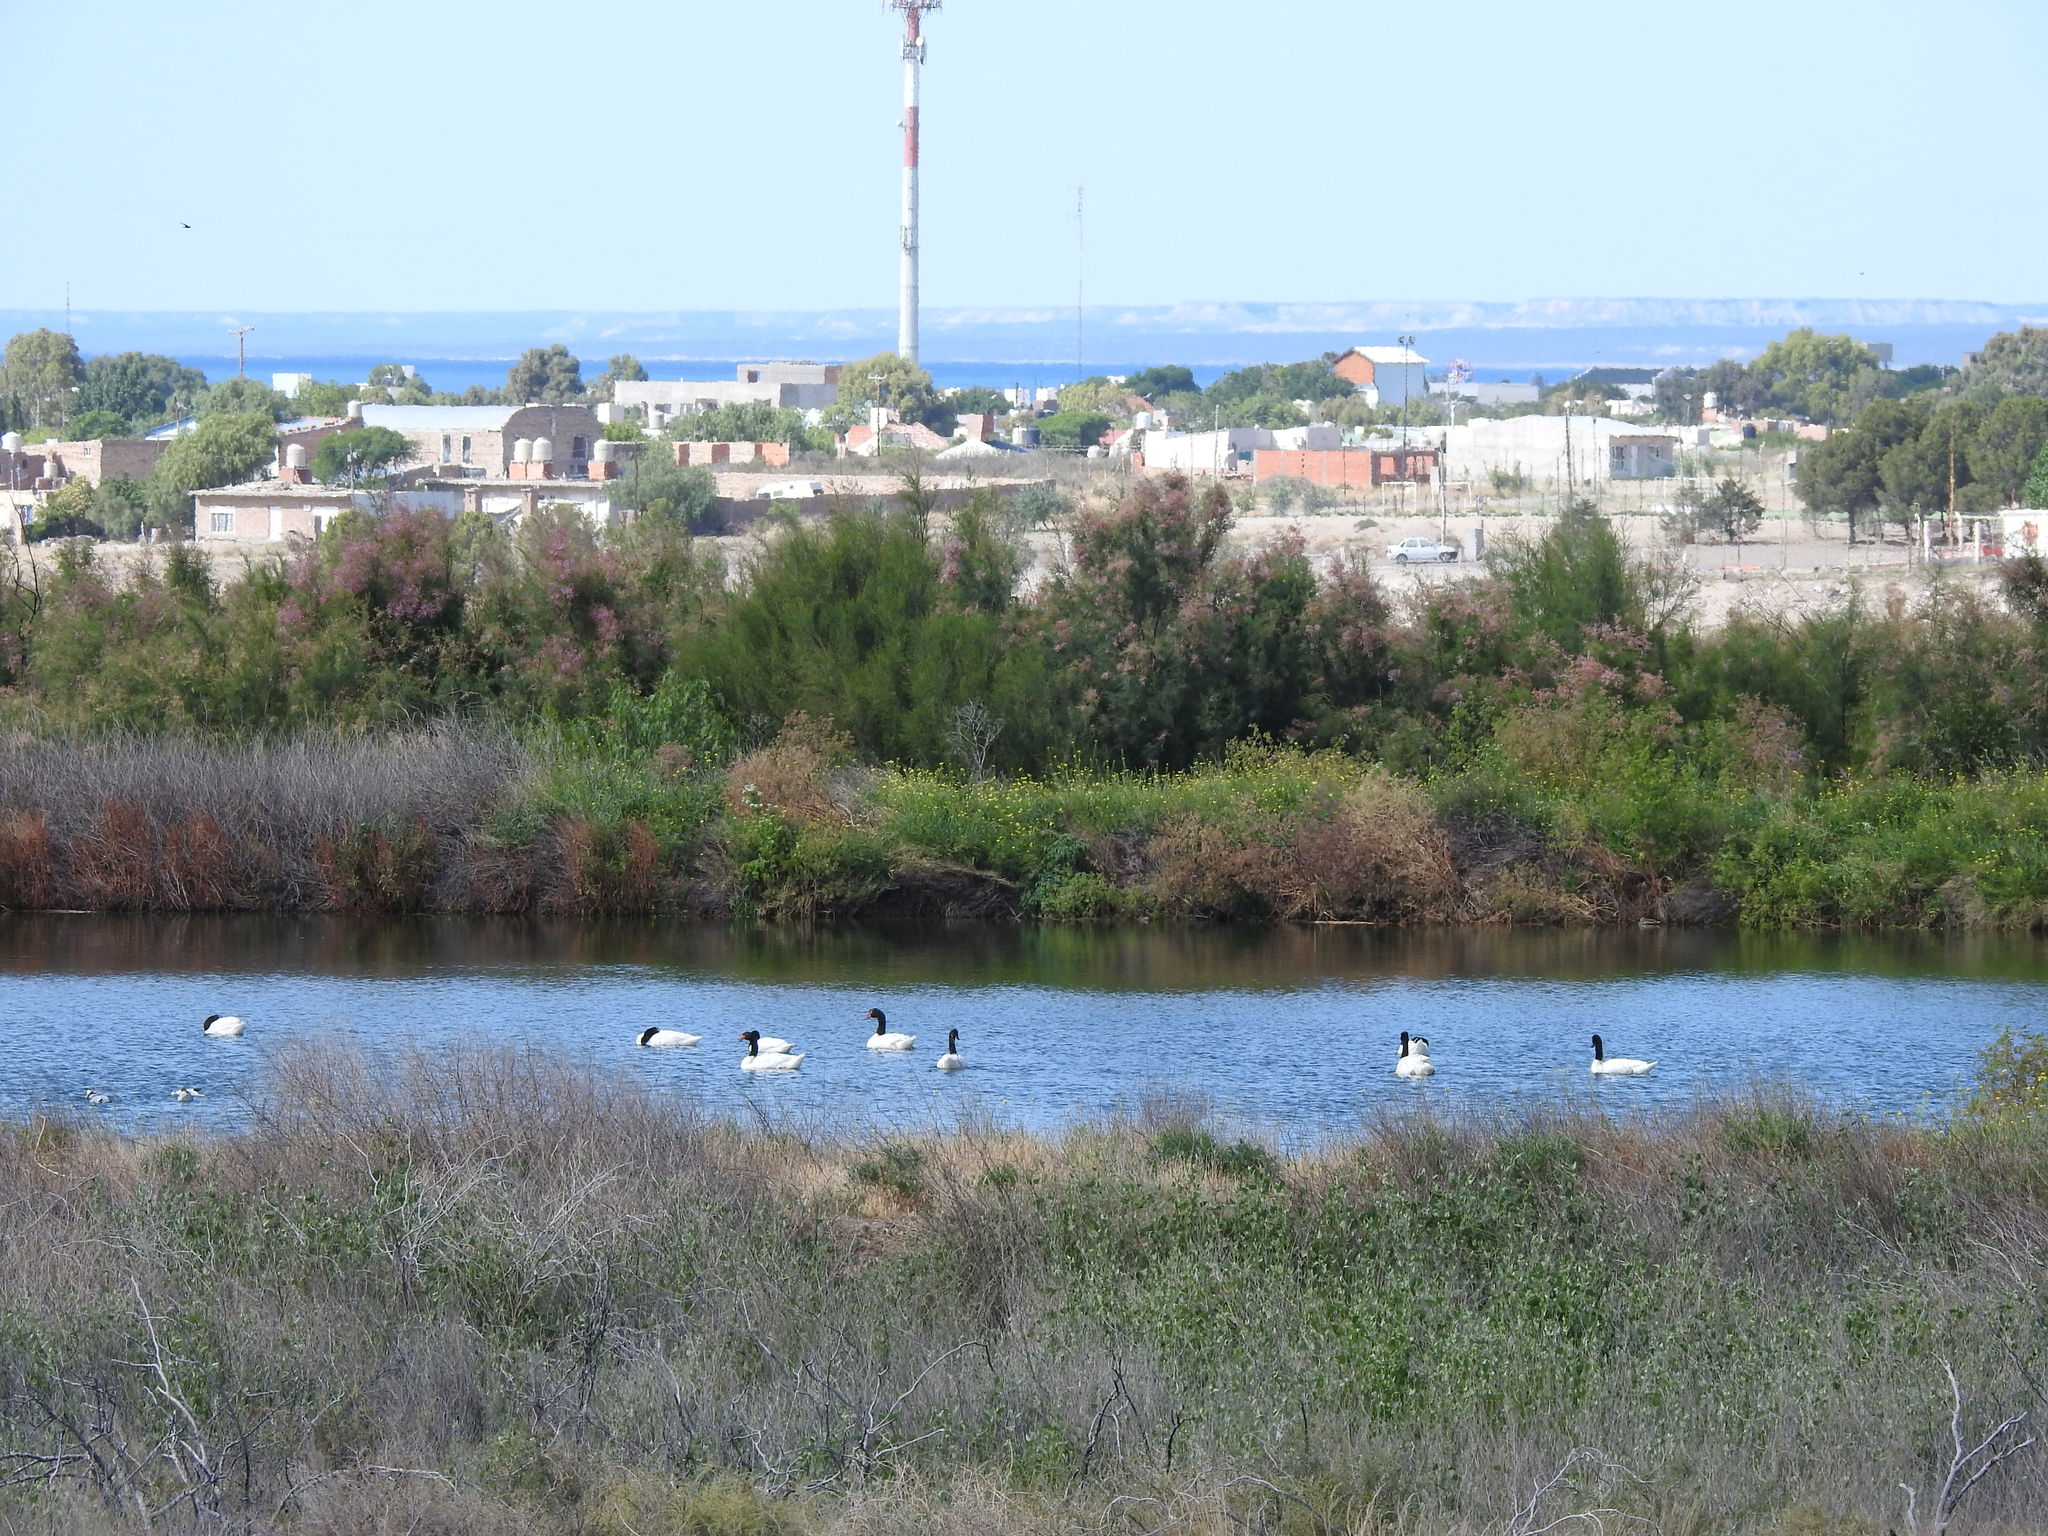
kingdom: Animalia
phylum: Chordata
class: Aves
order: Anseriformes
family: Anatidae
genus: Cygnus
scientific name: Cygnus melancoryphus
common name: Black-necked swan
